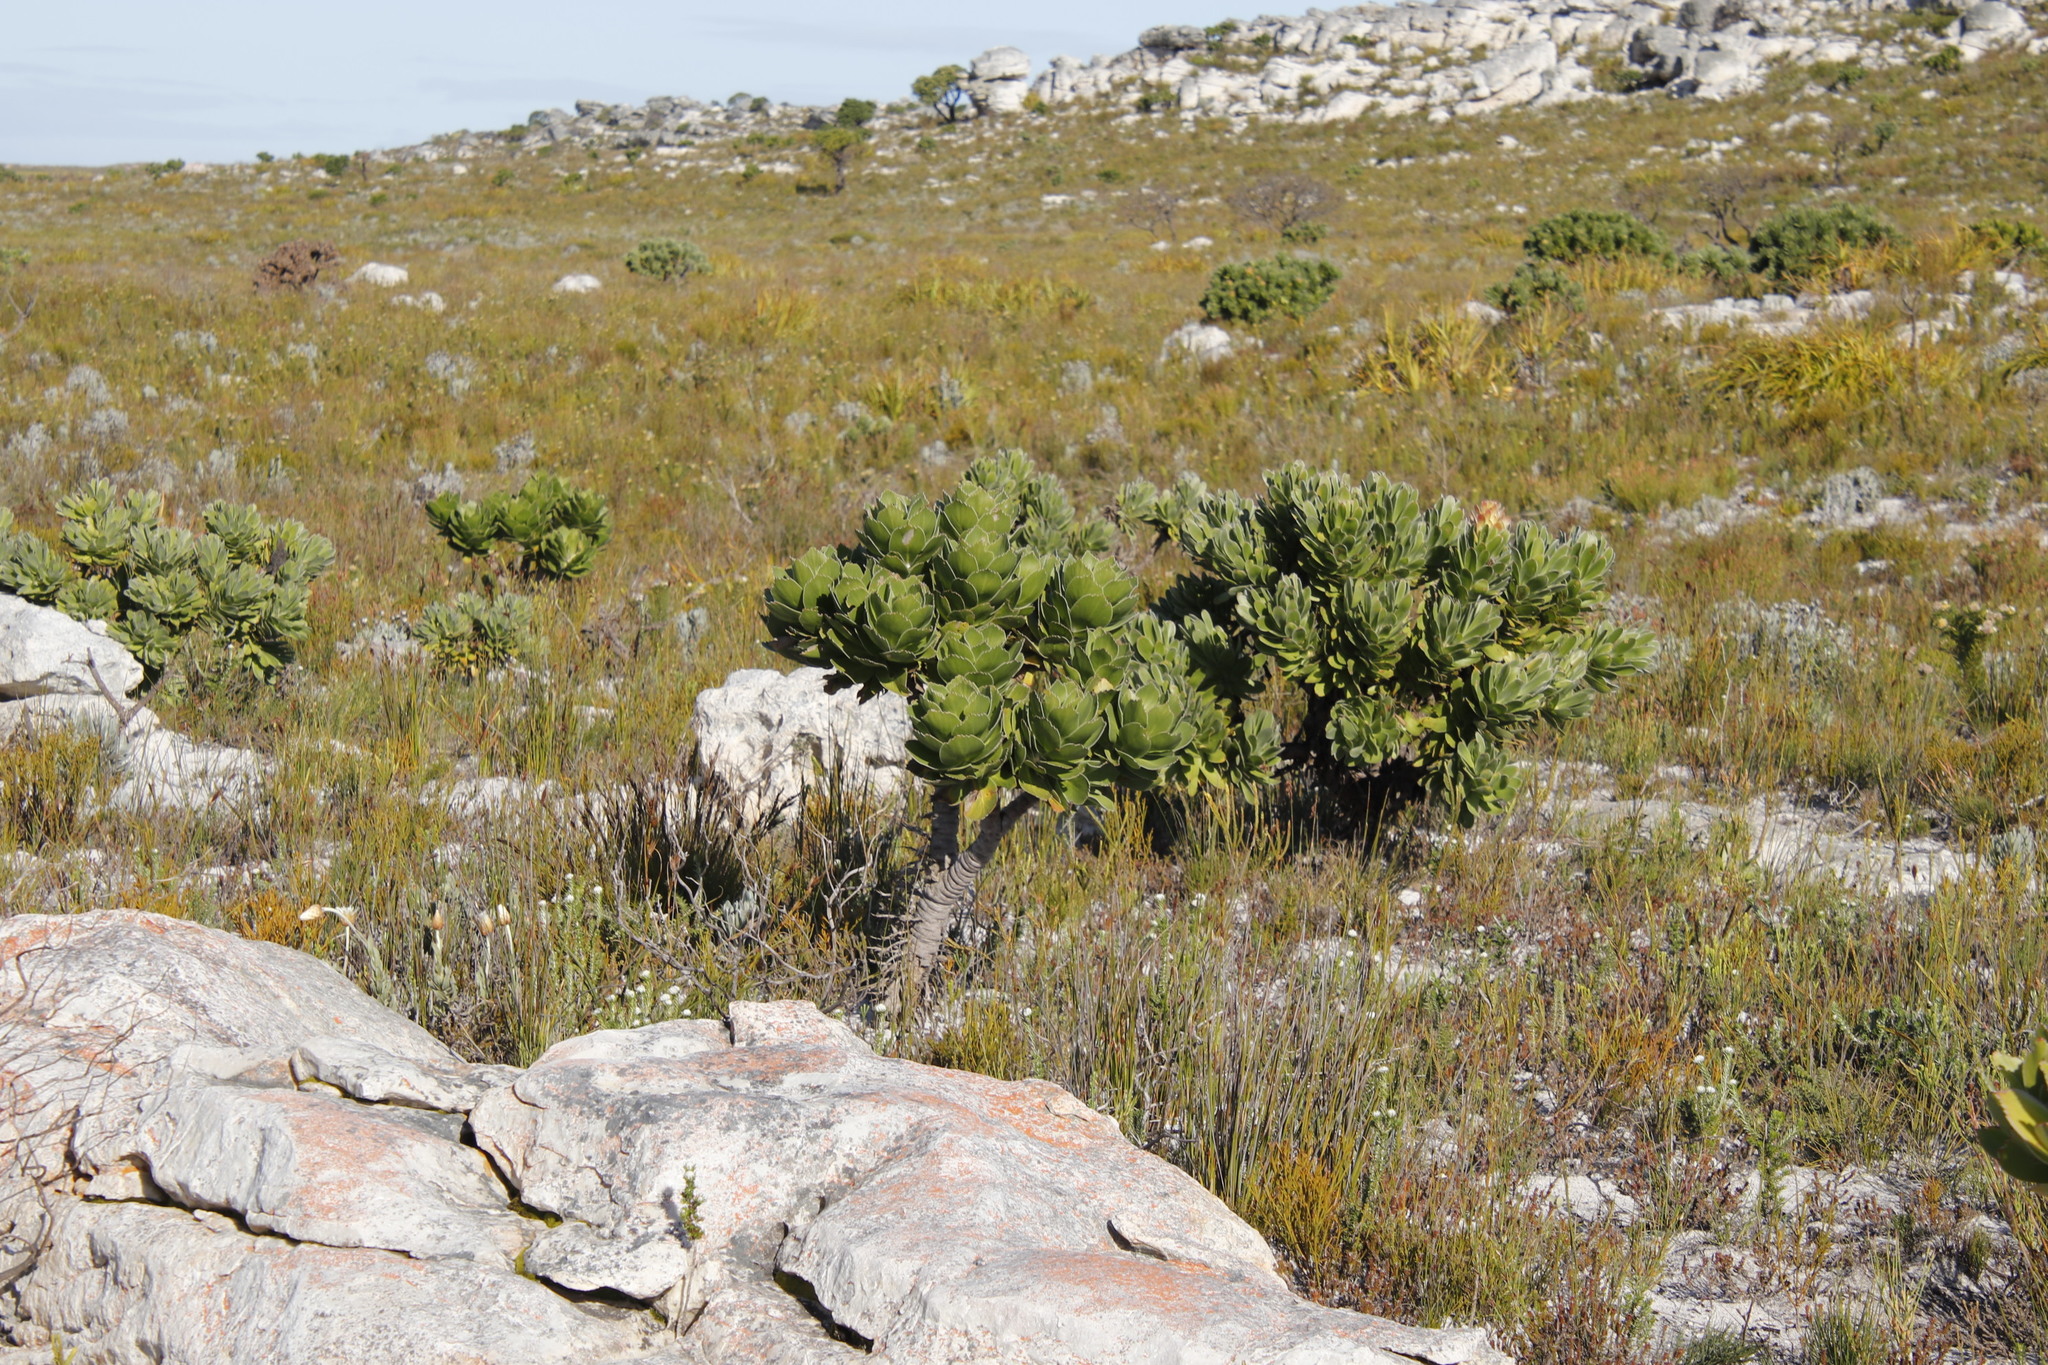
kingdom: Plantae
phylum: Tracheophyta
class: Magnoliopsida
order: Proteales
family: Proteaceae
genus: Leucospermum
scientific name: Leucospermum conocarpodendron
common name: Tree pincushion
